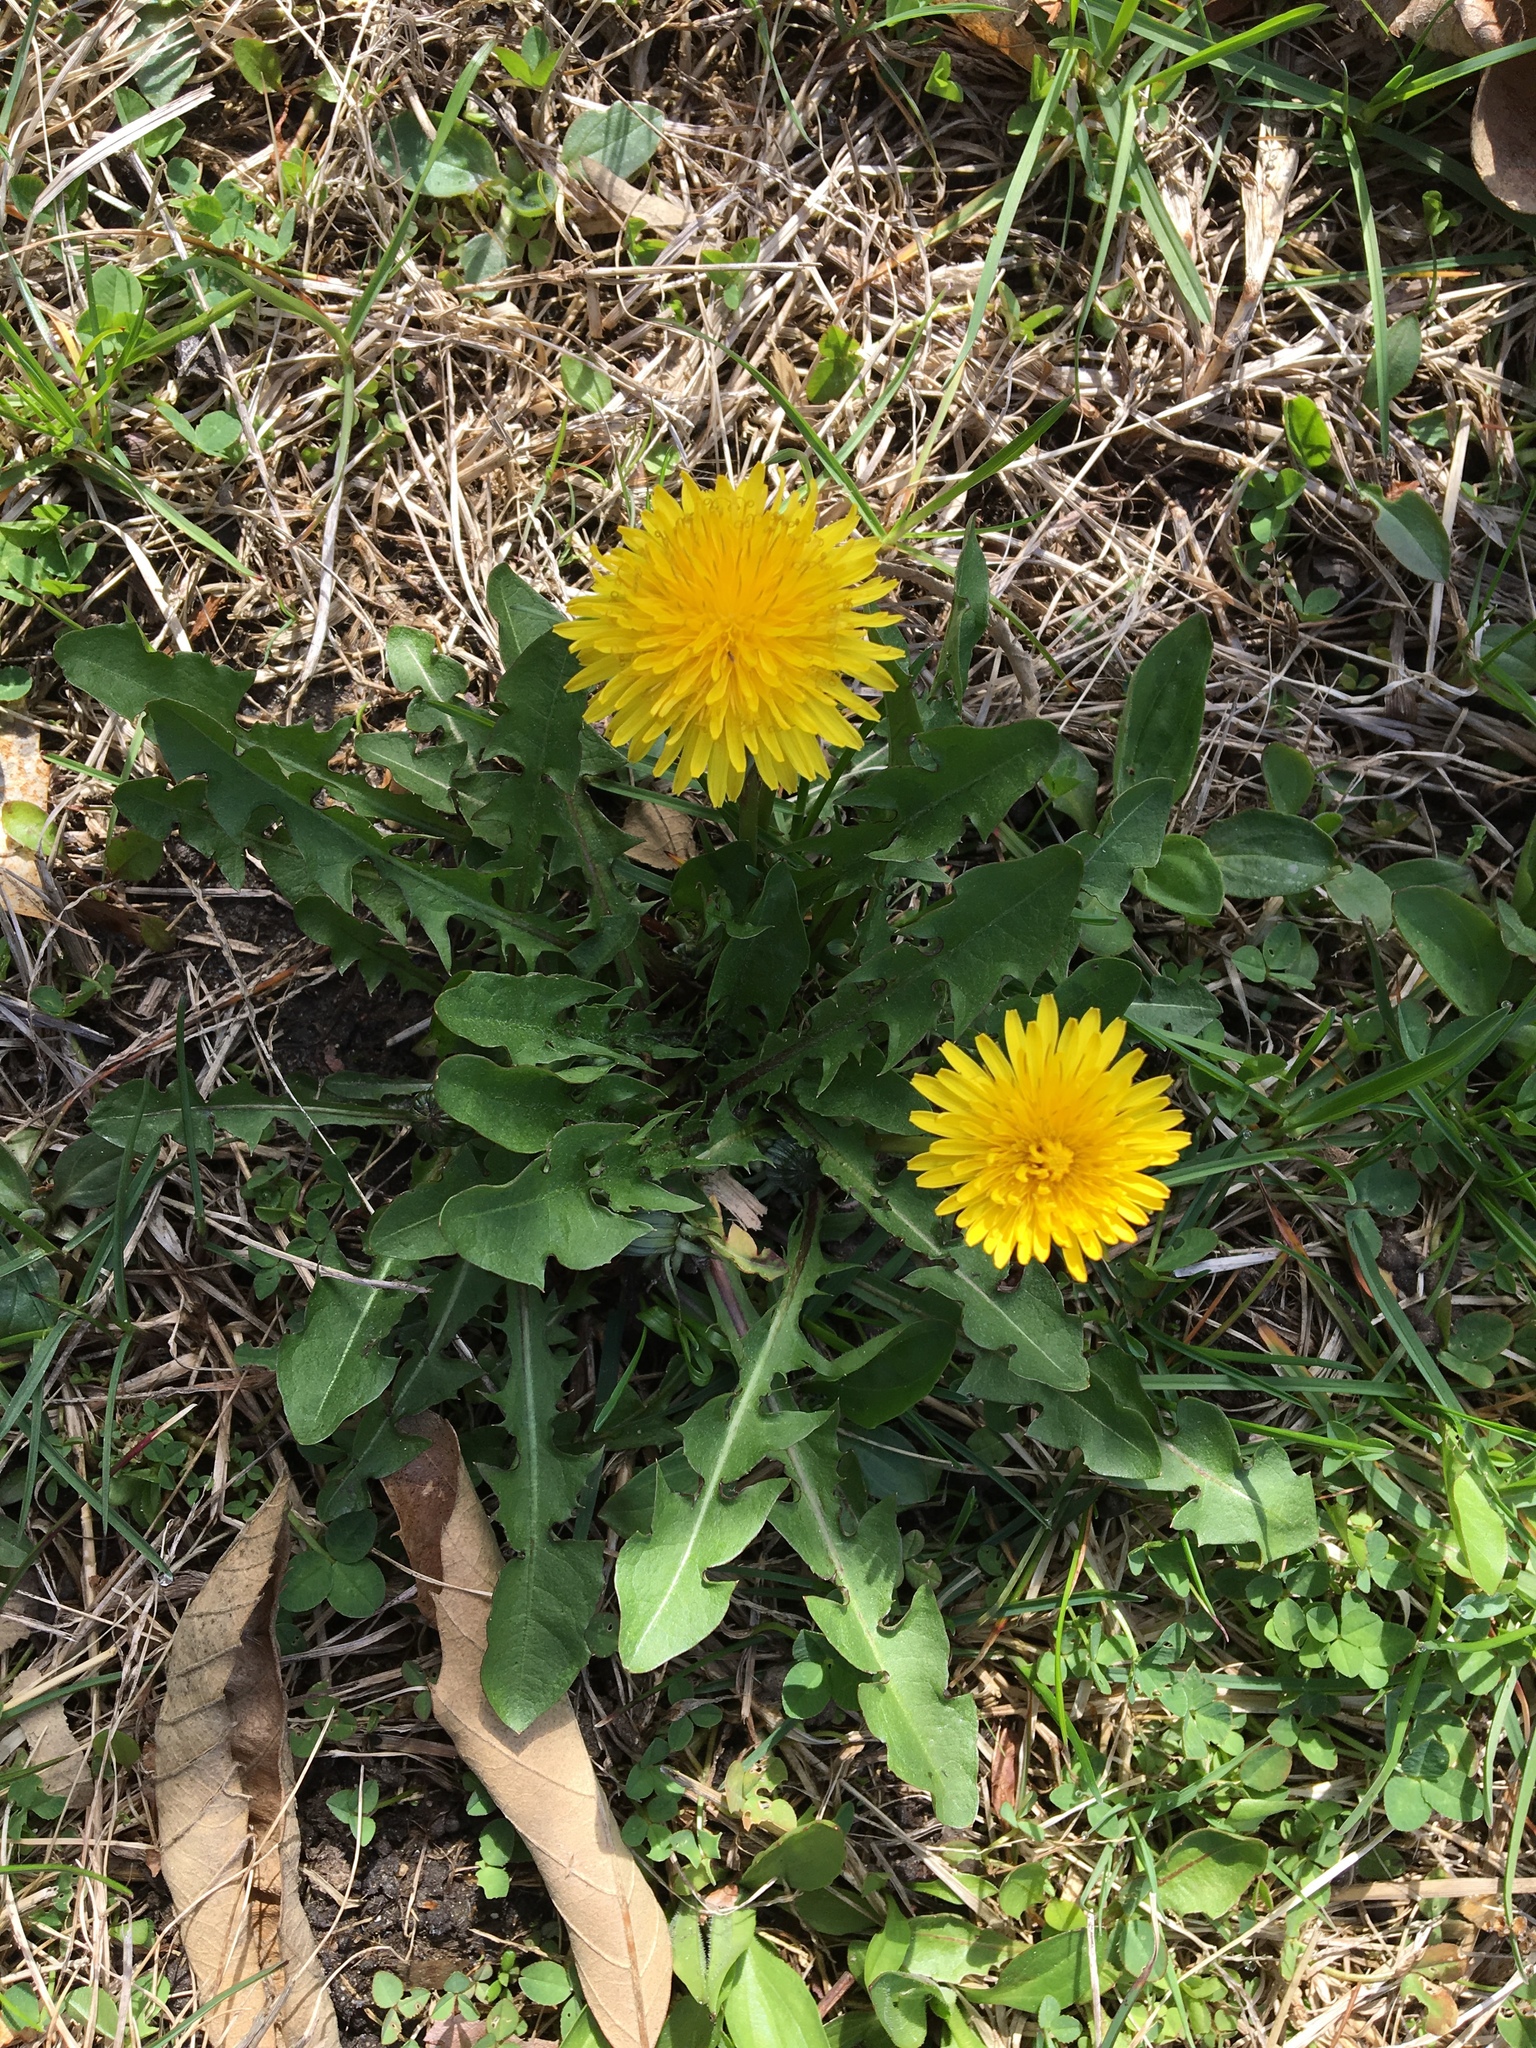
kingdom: Plantae
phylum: Tracheophyta
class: Magnoliopsida
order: Asterales
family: Asteraceae
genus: Taraxacum
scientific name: Taraxacum officinale
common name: Common dandelion
